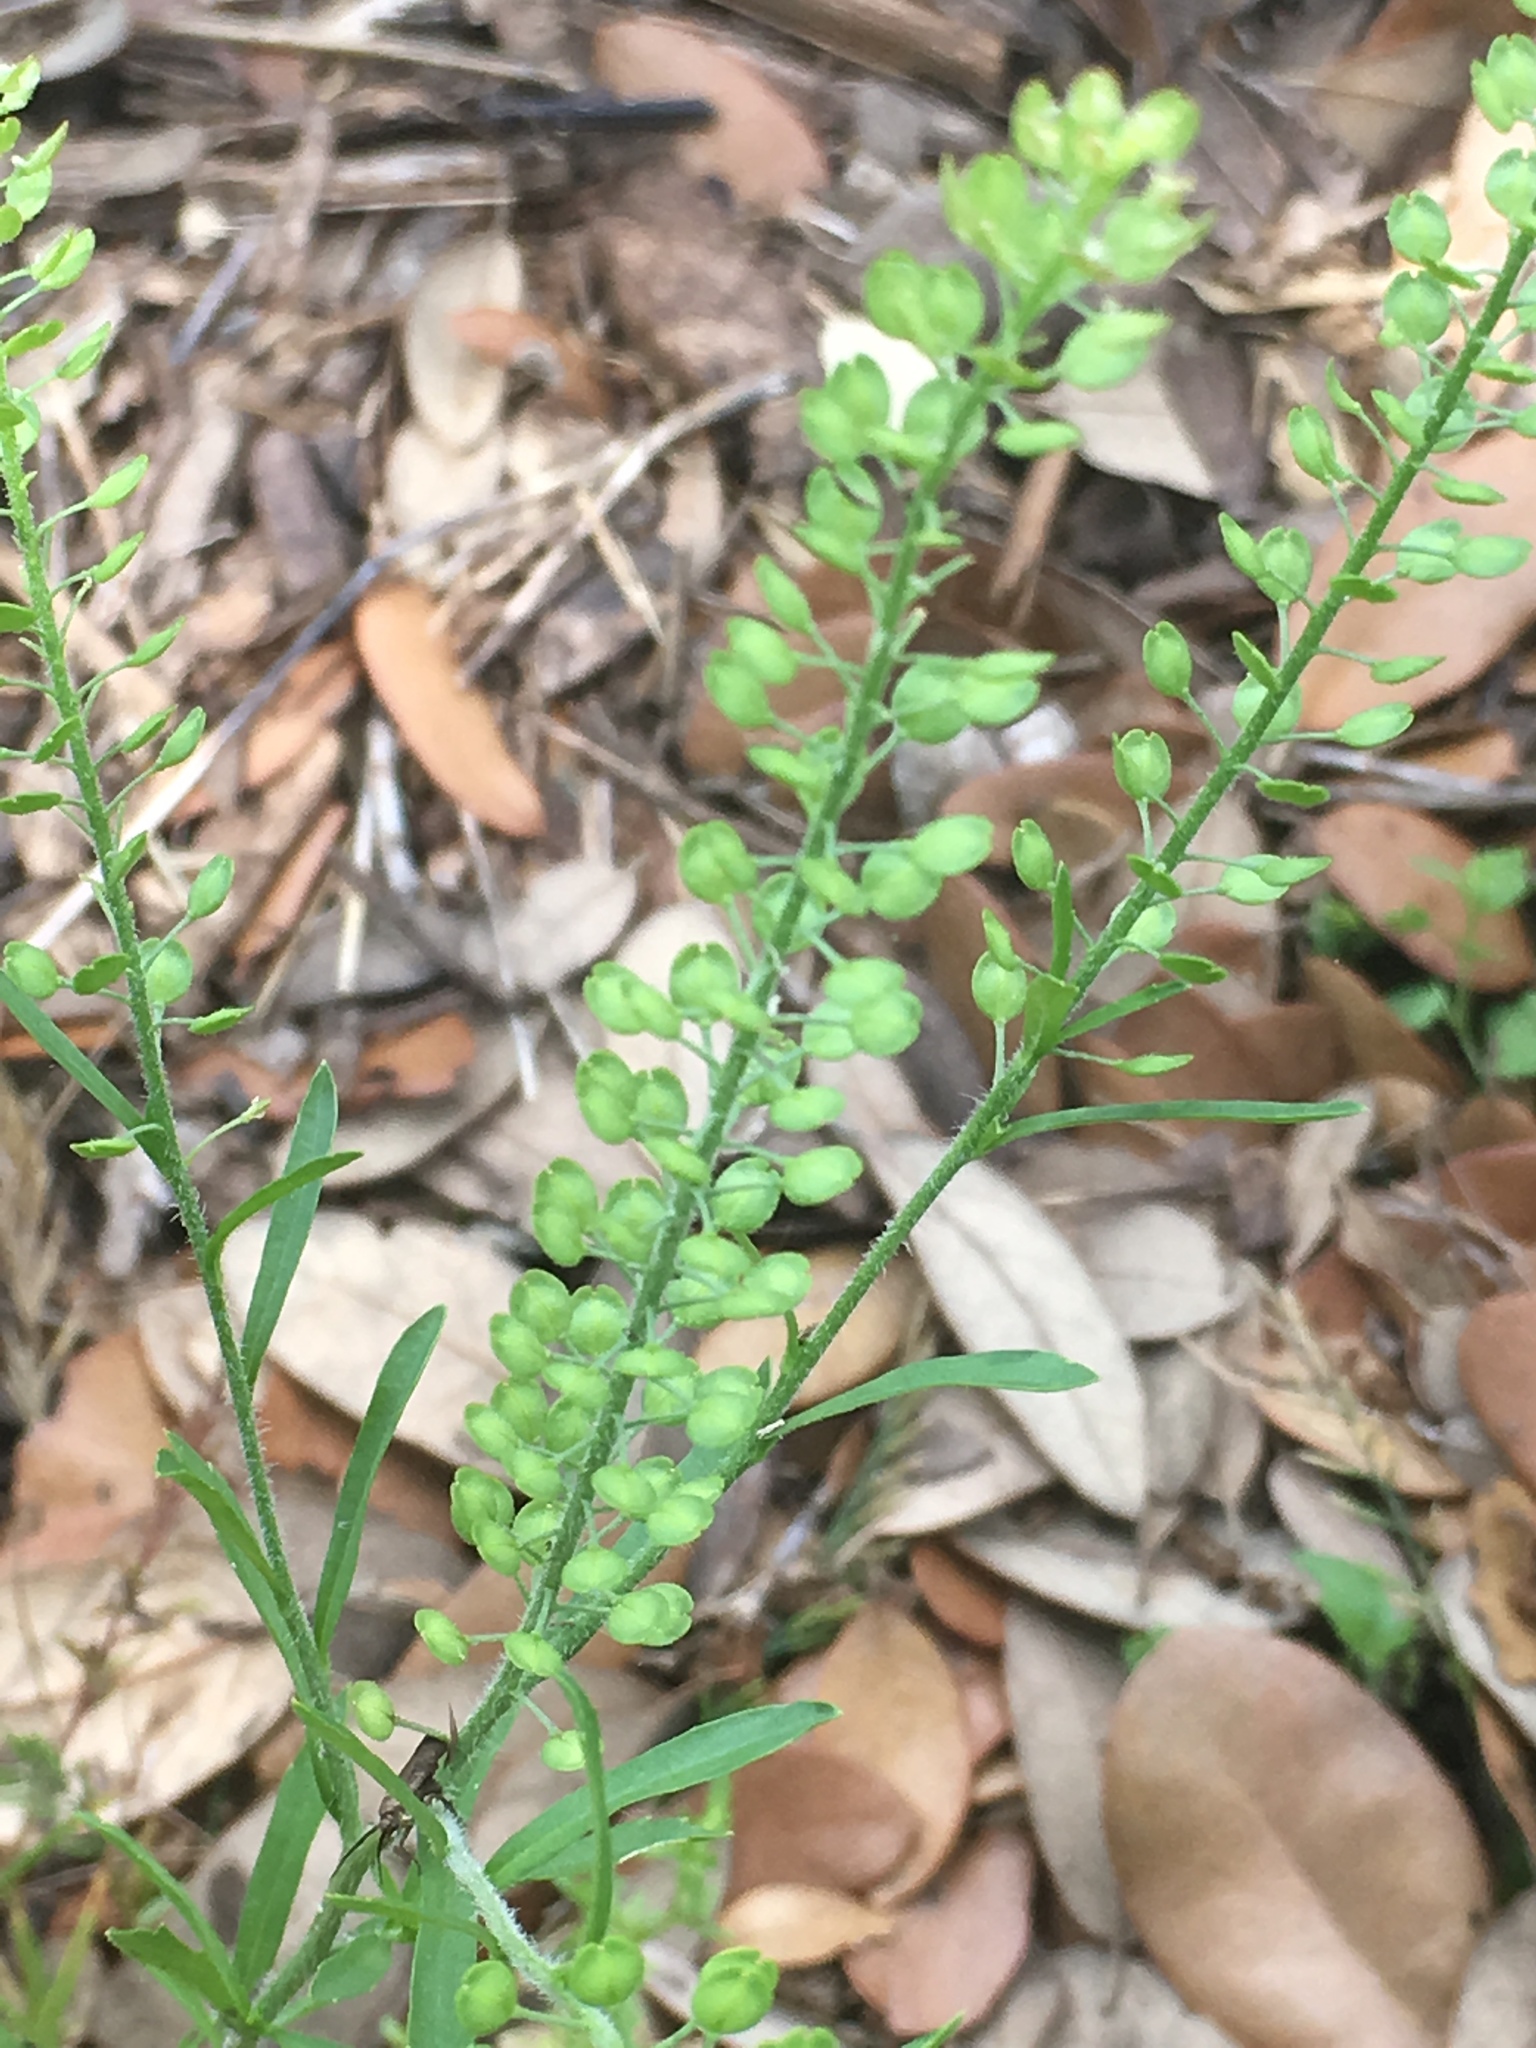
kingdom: Plantae
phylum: Tracheophyta
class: Magnoliopsida
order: Brassicales
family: Brassicaceae
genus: Lepidium
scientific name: Lepidium virginicum
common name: Least pepperwort
